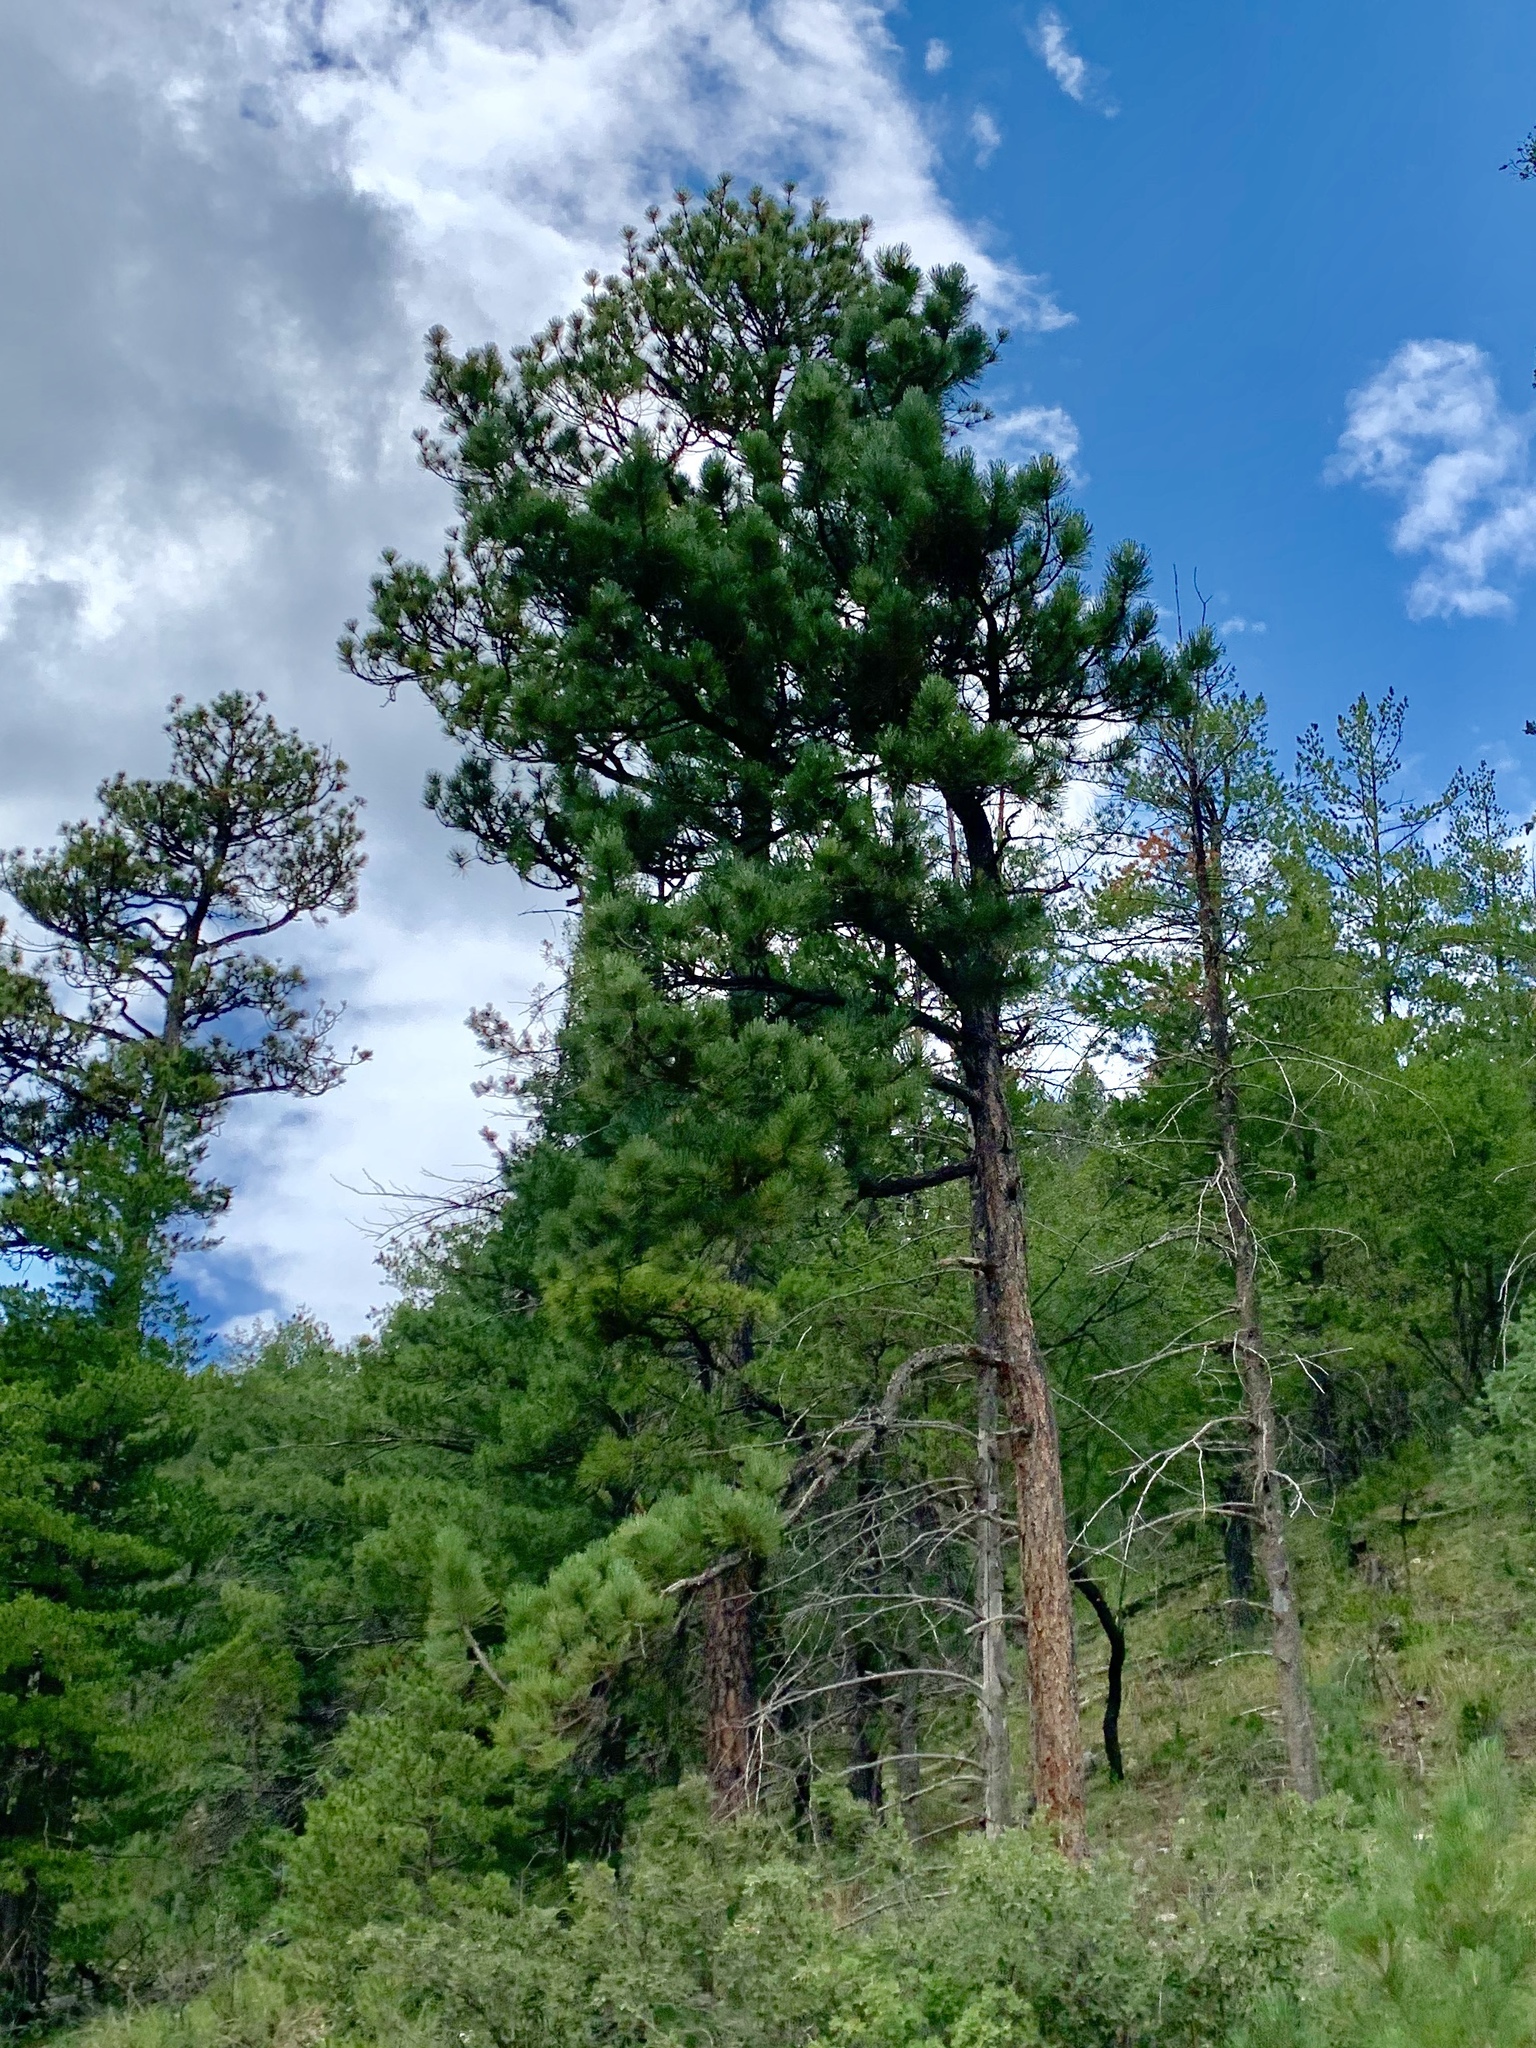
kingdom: Plantae
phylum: Tracheophyta
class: Pinopsida
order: Pinales
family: Pinaceae
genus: Pinus
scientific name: Pinus ponderosa
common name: Western yellow-pine
